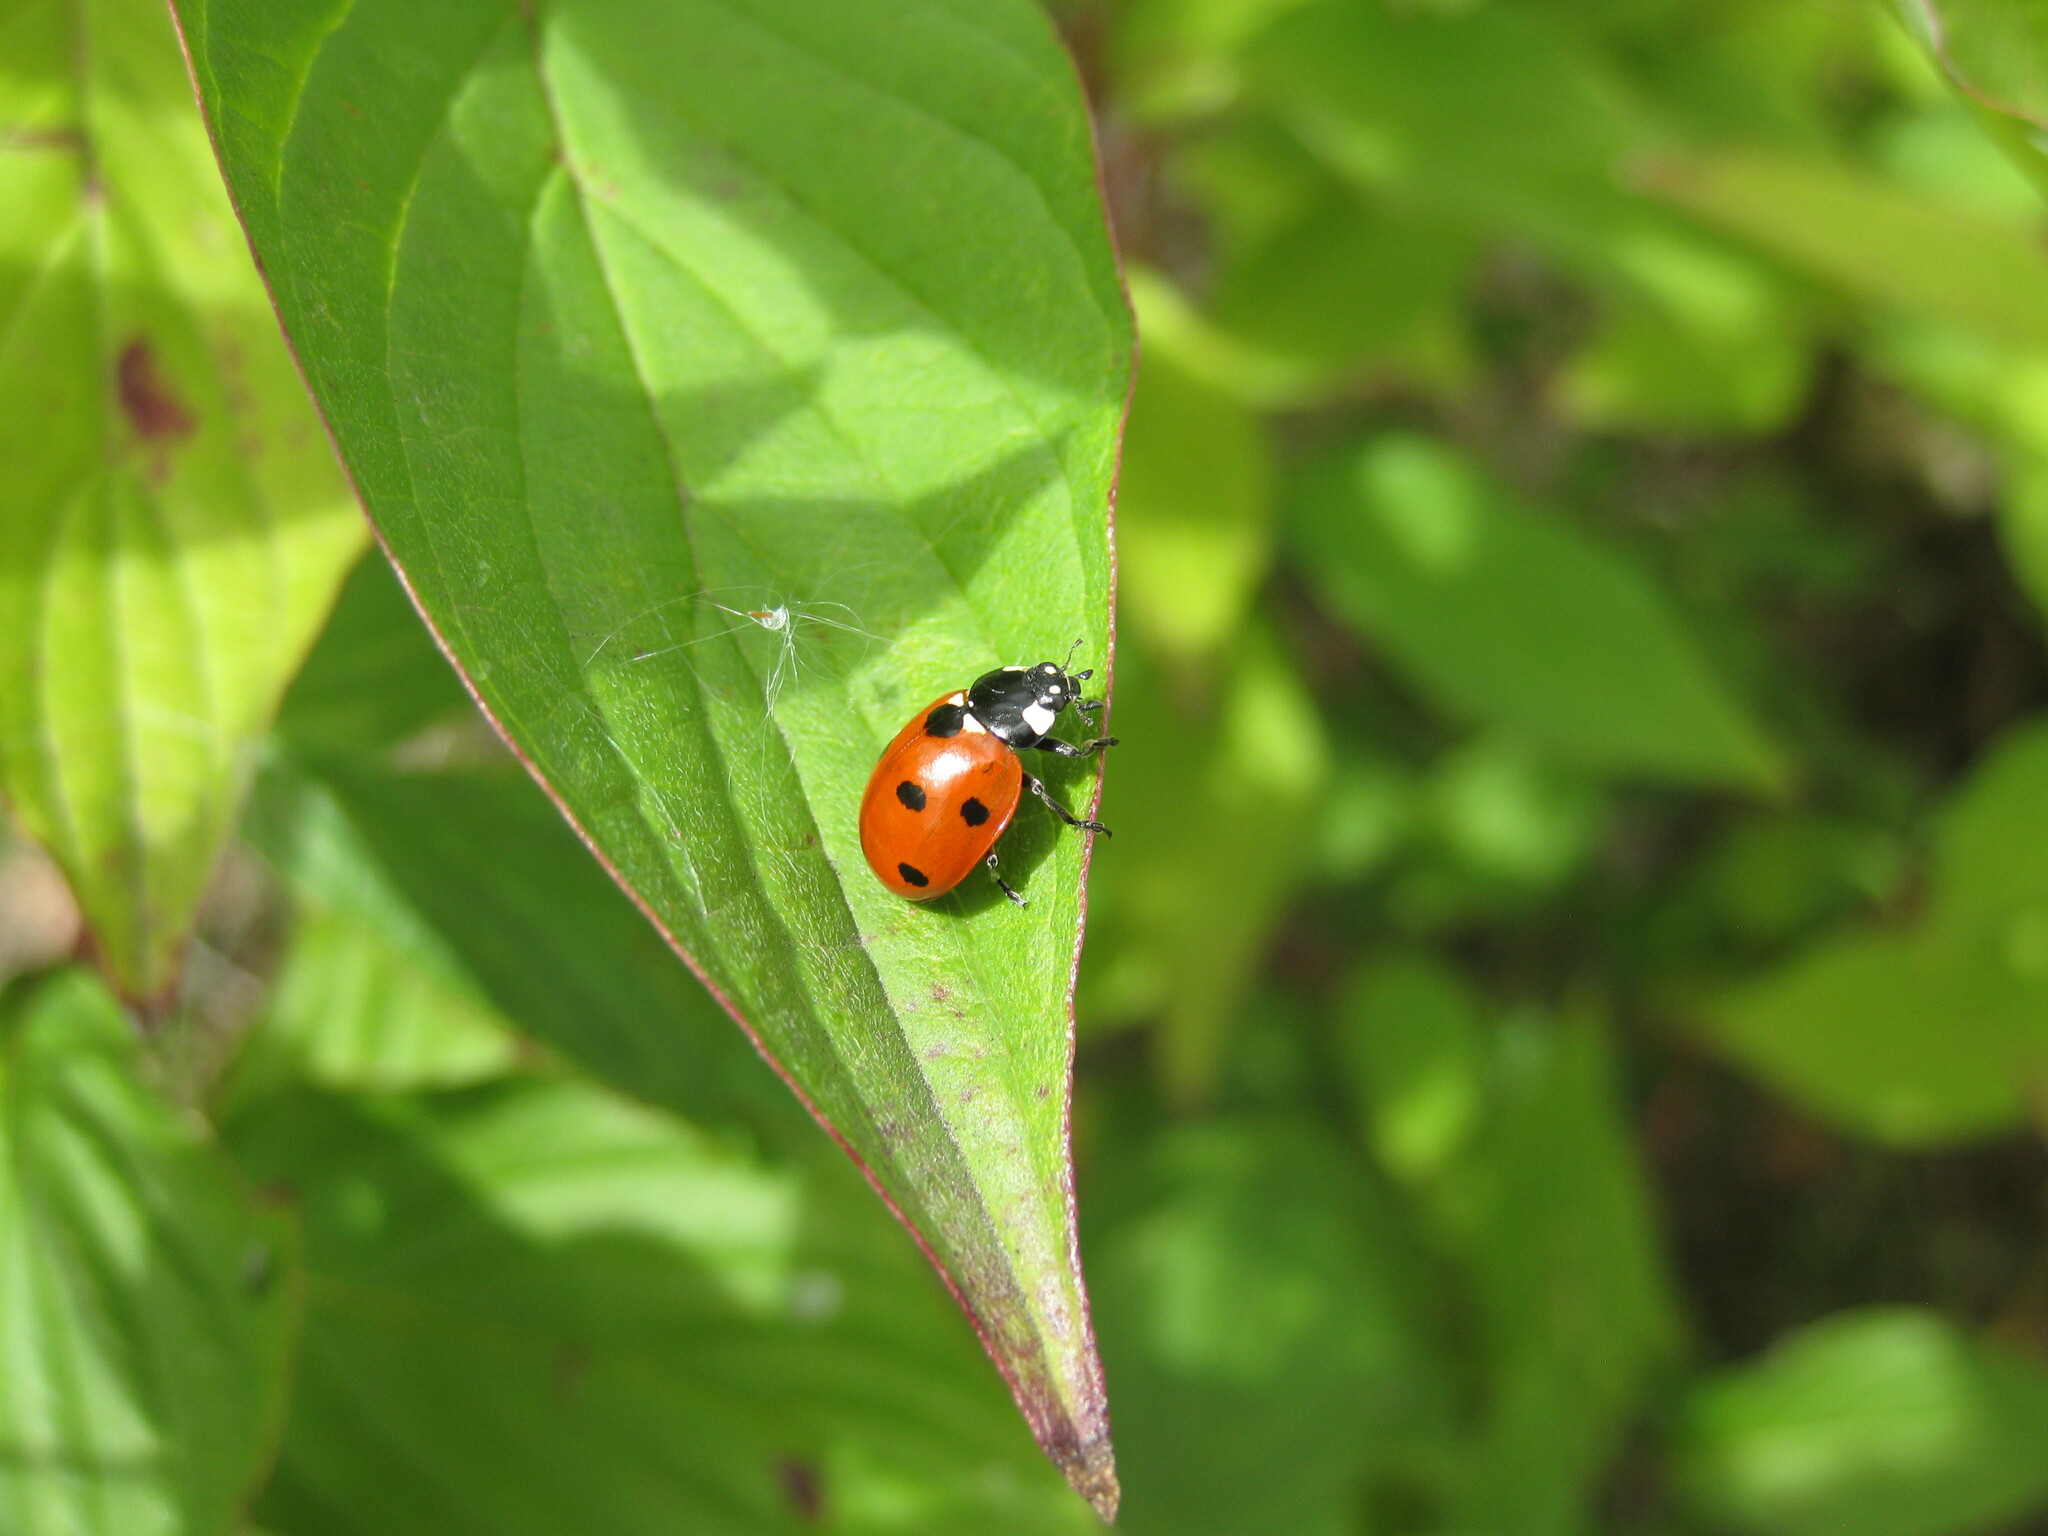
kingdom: Animalia
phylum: Arthropoda
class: Insecta
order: Coleoptera
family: Coccinellidae
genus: Coccinella
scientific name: Coccinella septempunctata
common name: Sevenspotted lady beetle
